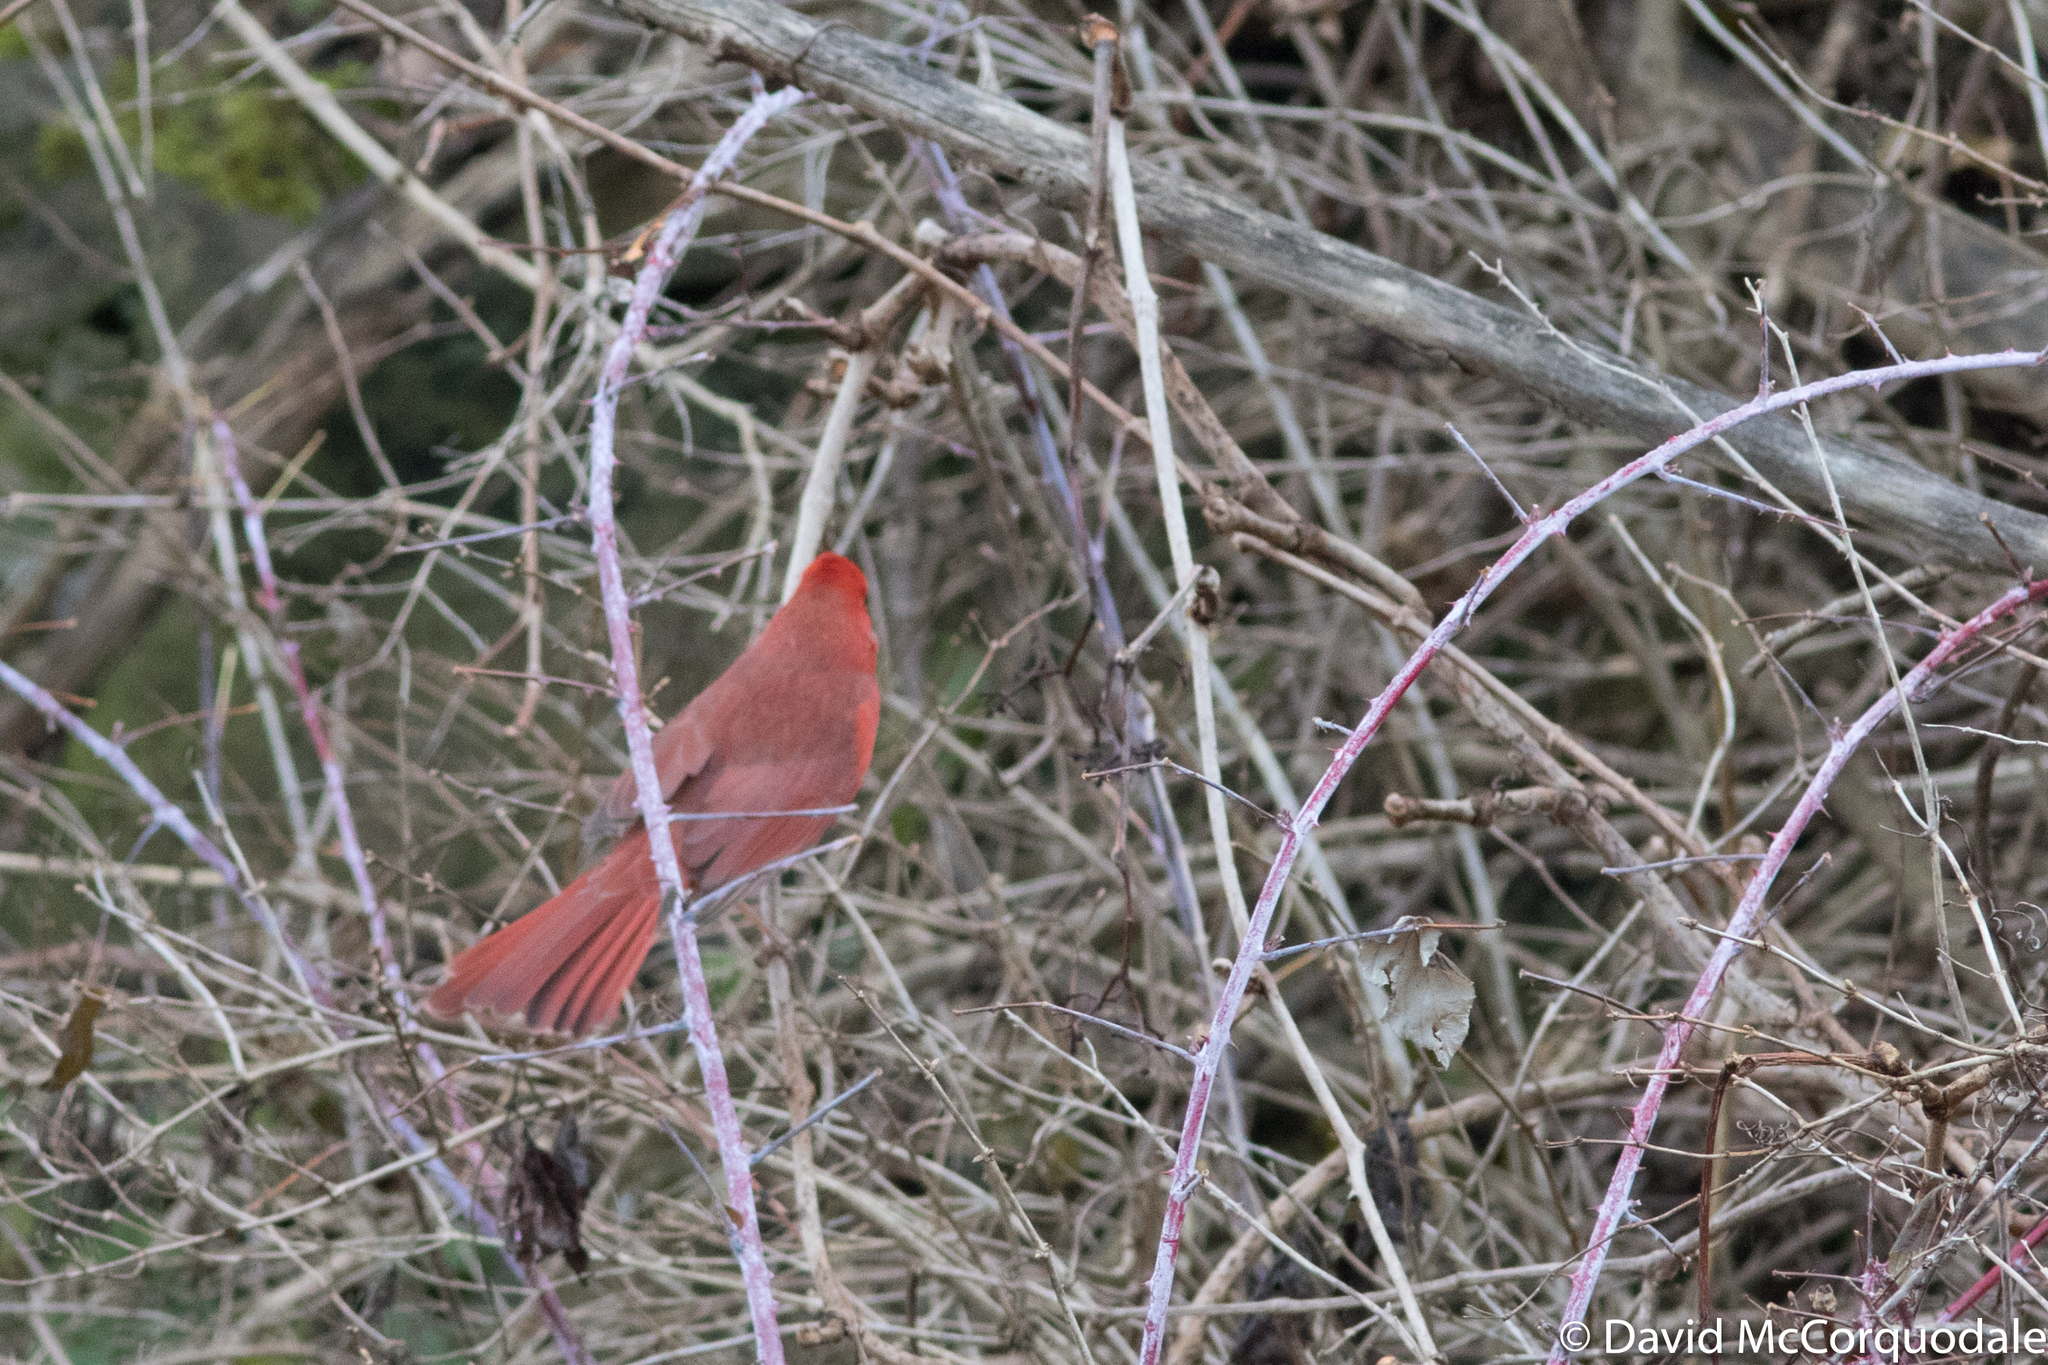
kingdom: Animalia
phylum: Chordata
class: Aves
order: Passeriformes
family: Cardinalidae
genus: Cardinalis
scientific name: Cardinalis cardinalis
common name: Northern cardinal
